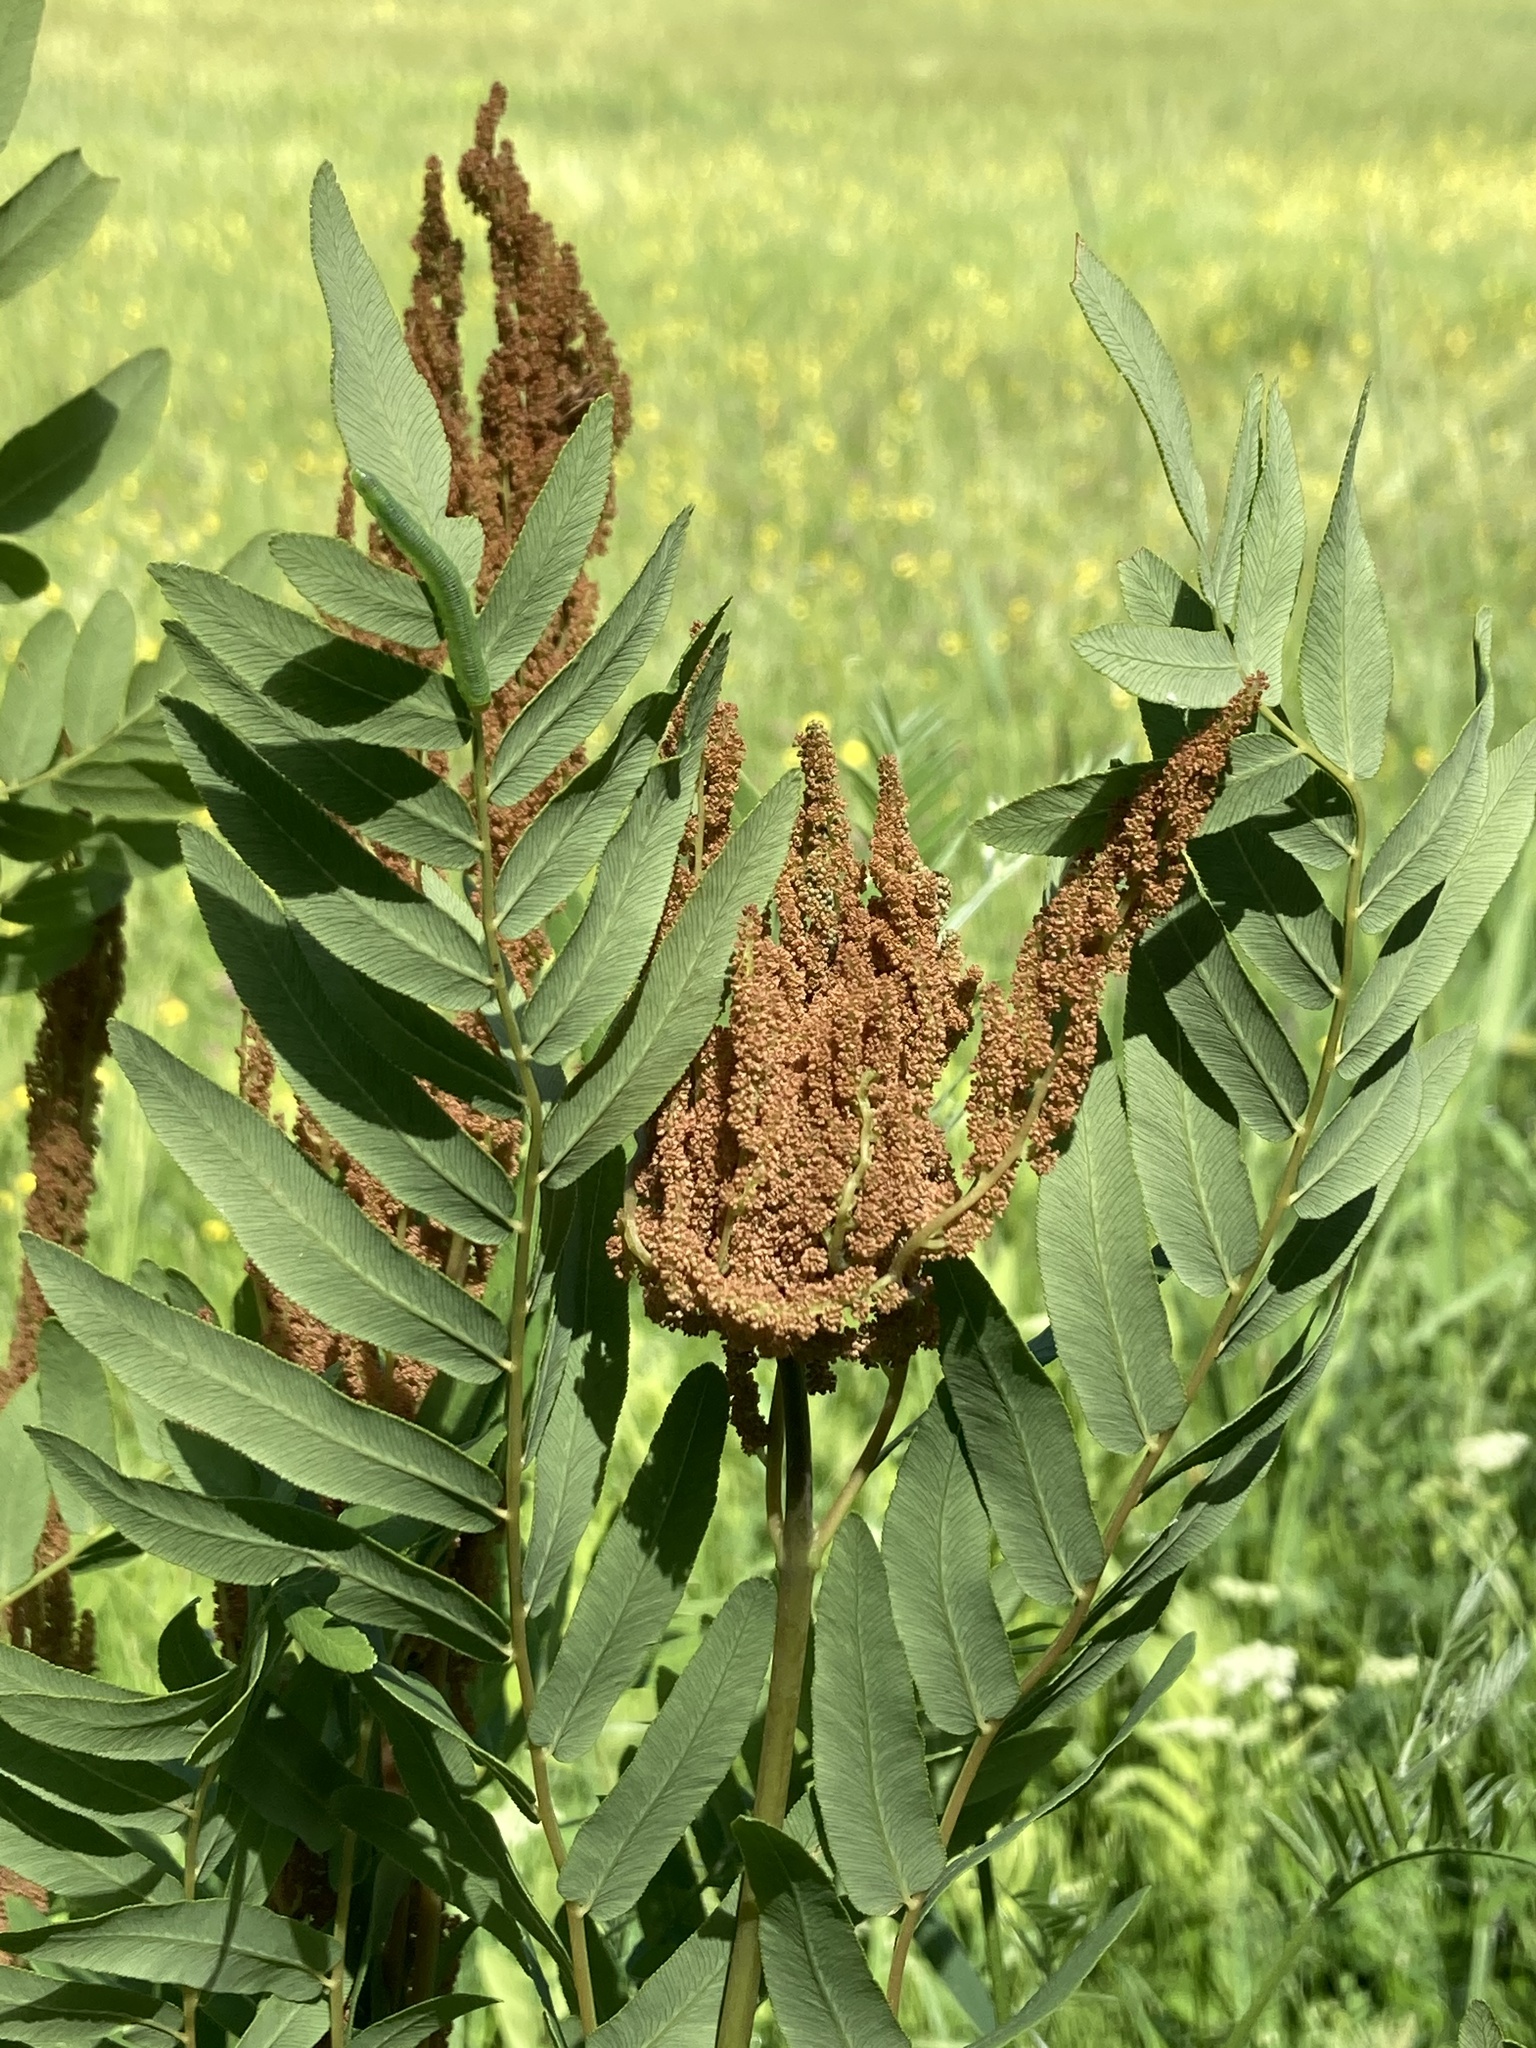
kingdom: Plantae
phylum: Tracheophyta
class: Polypodiopsida
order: Osmundales
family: Osmundaceae
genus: Osmunda
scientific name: Osmunda spectabilis
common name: American royal fern
